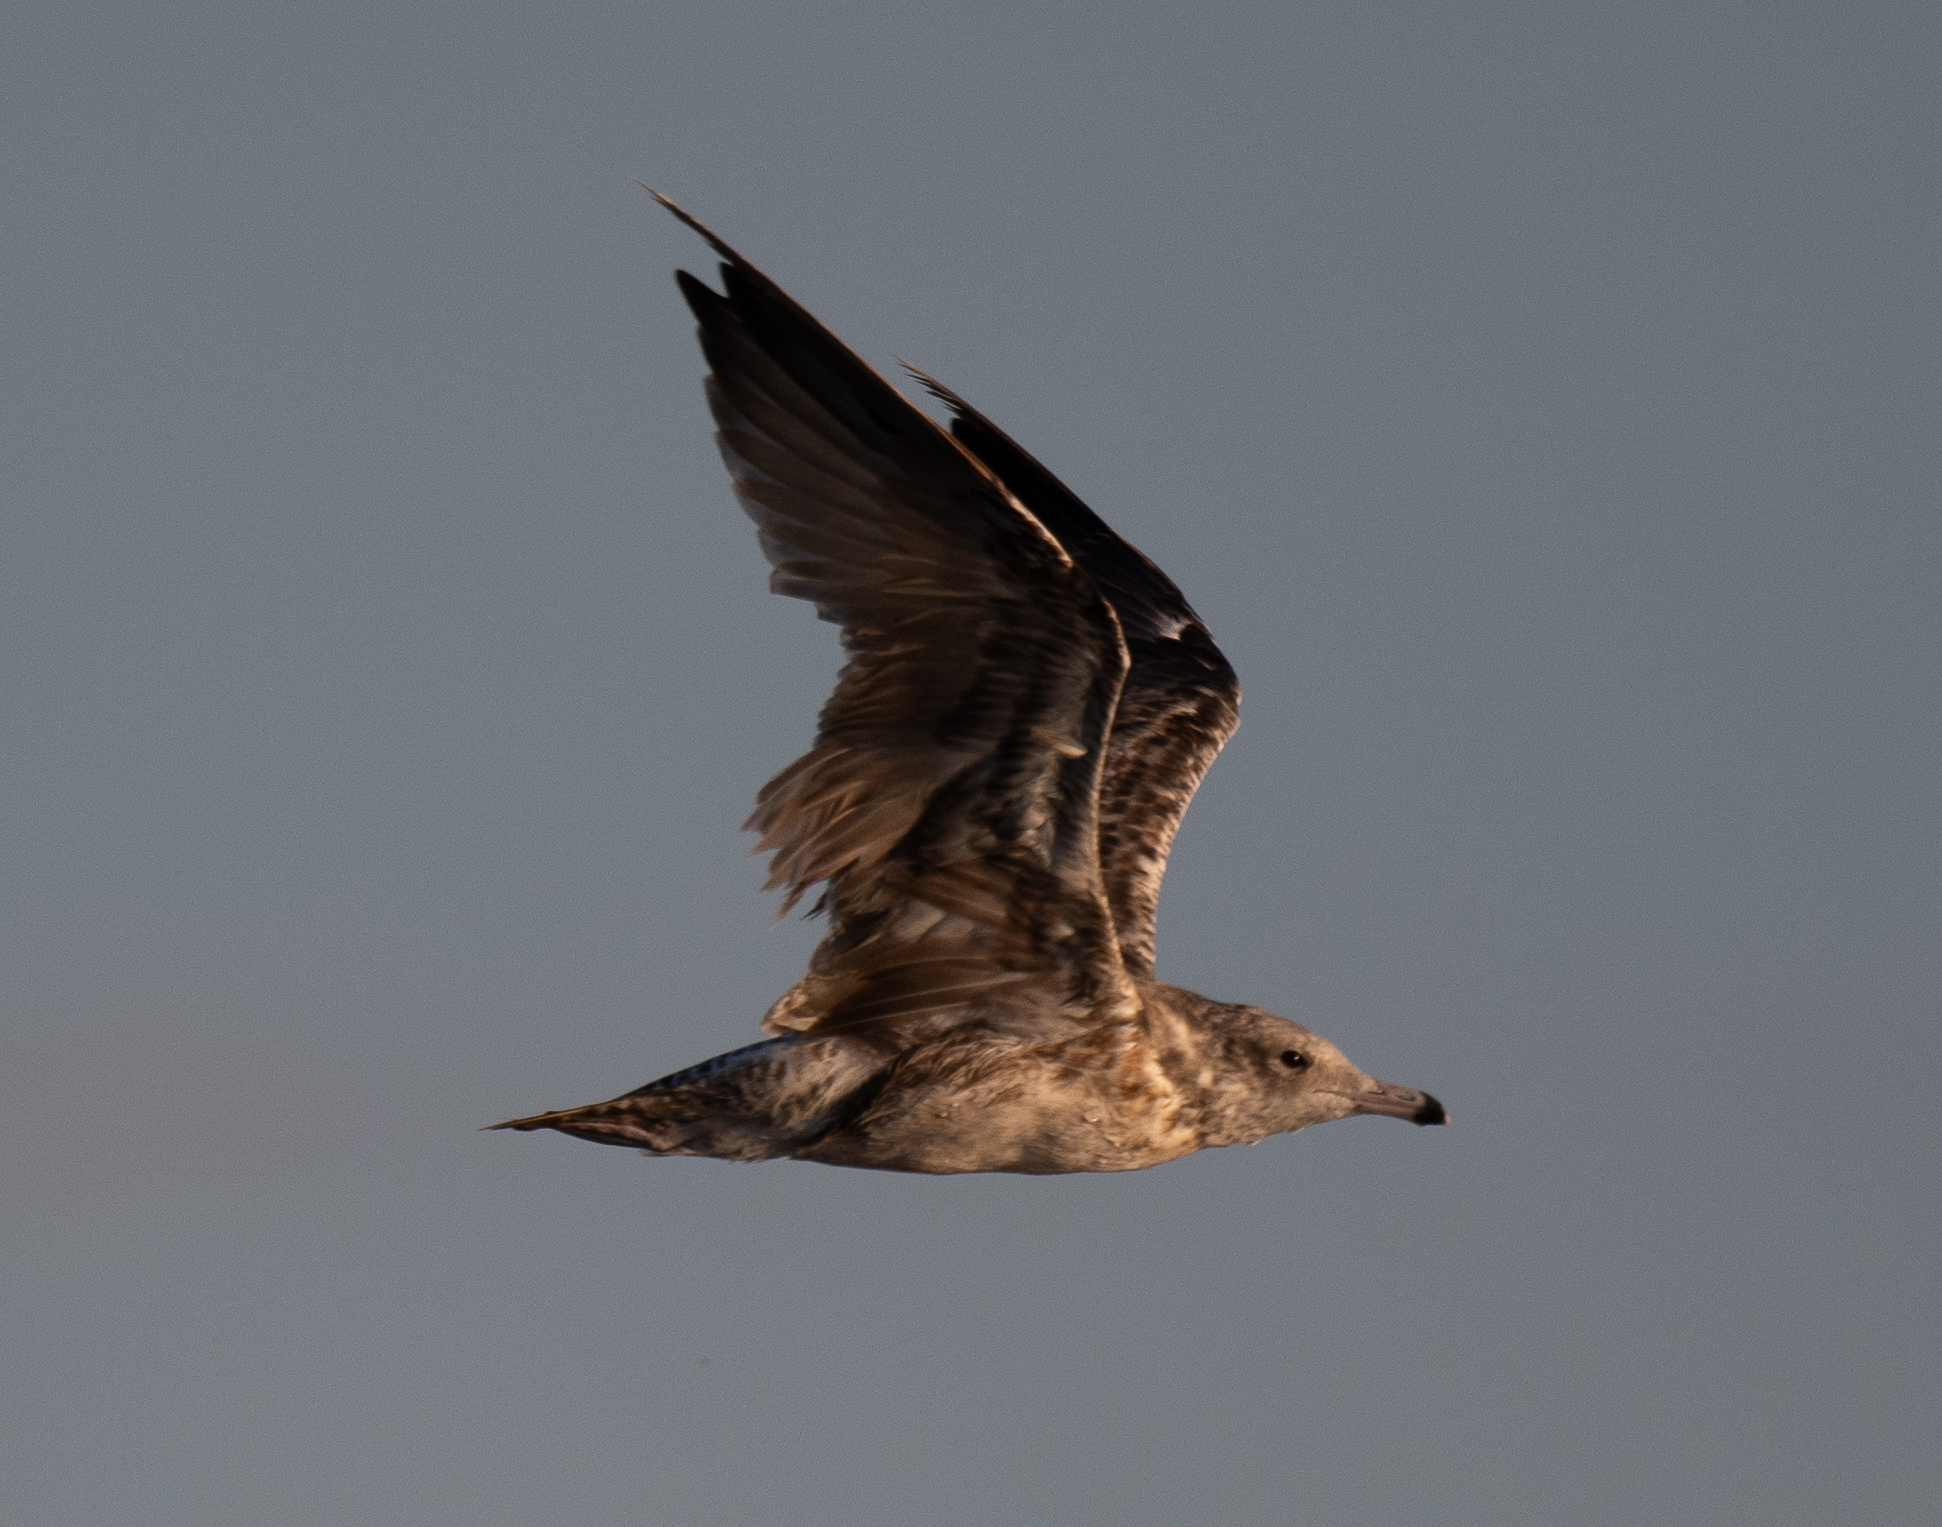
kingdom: Animalia
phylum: Chordata
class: Aves
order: Charadriiformes
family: Laridae
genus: Larus
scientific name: Larus californicus
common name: California gull
